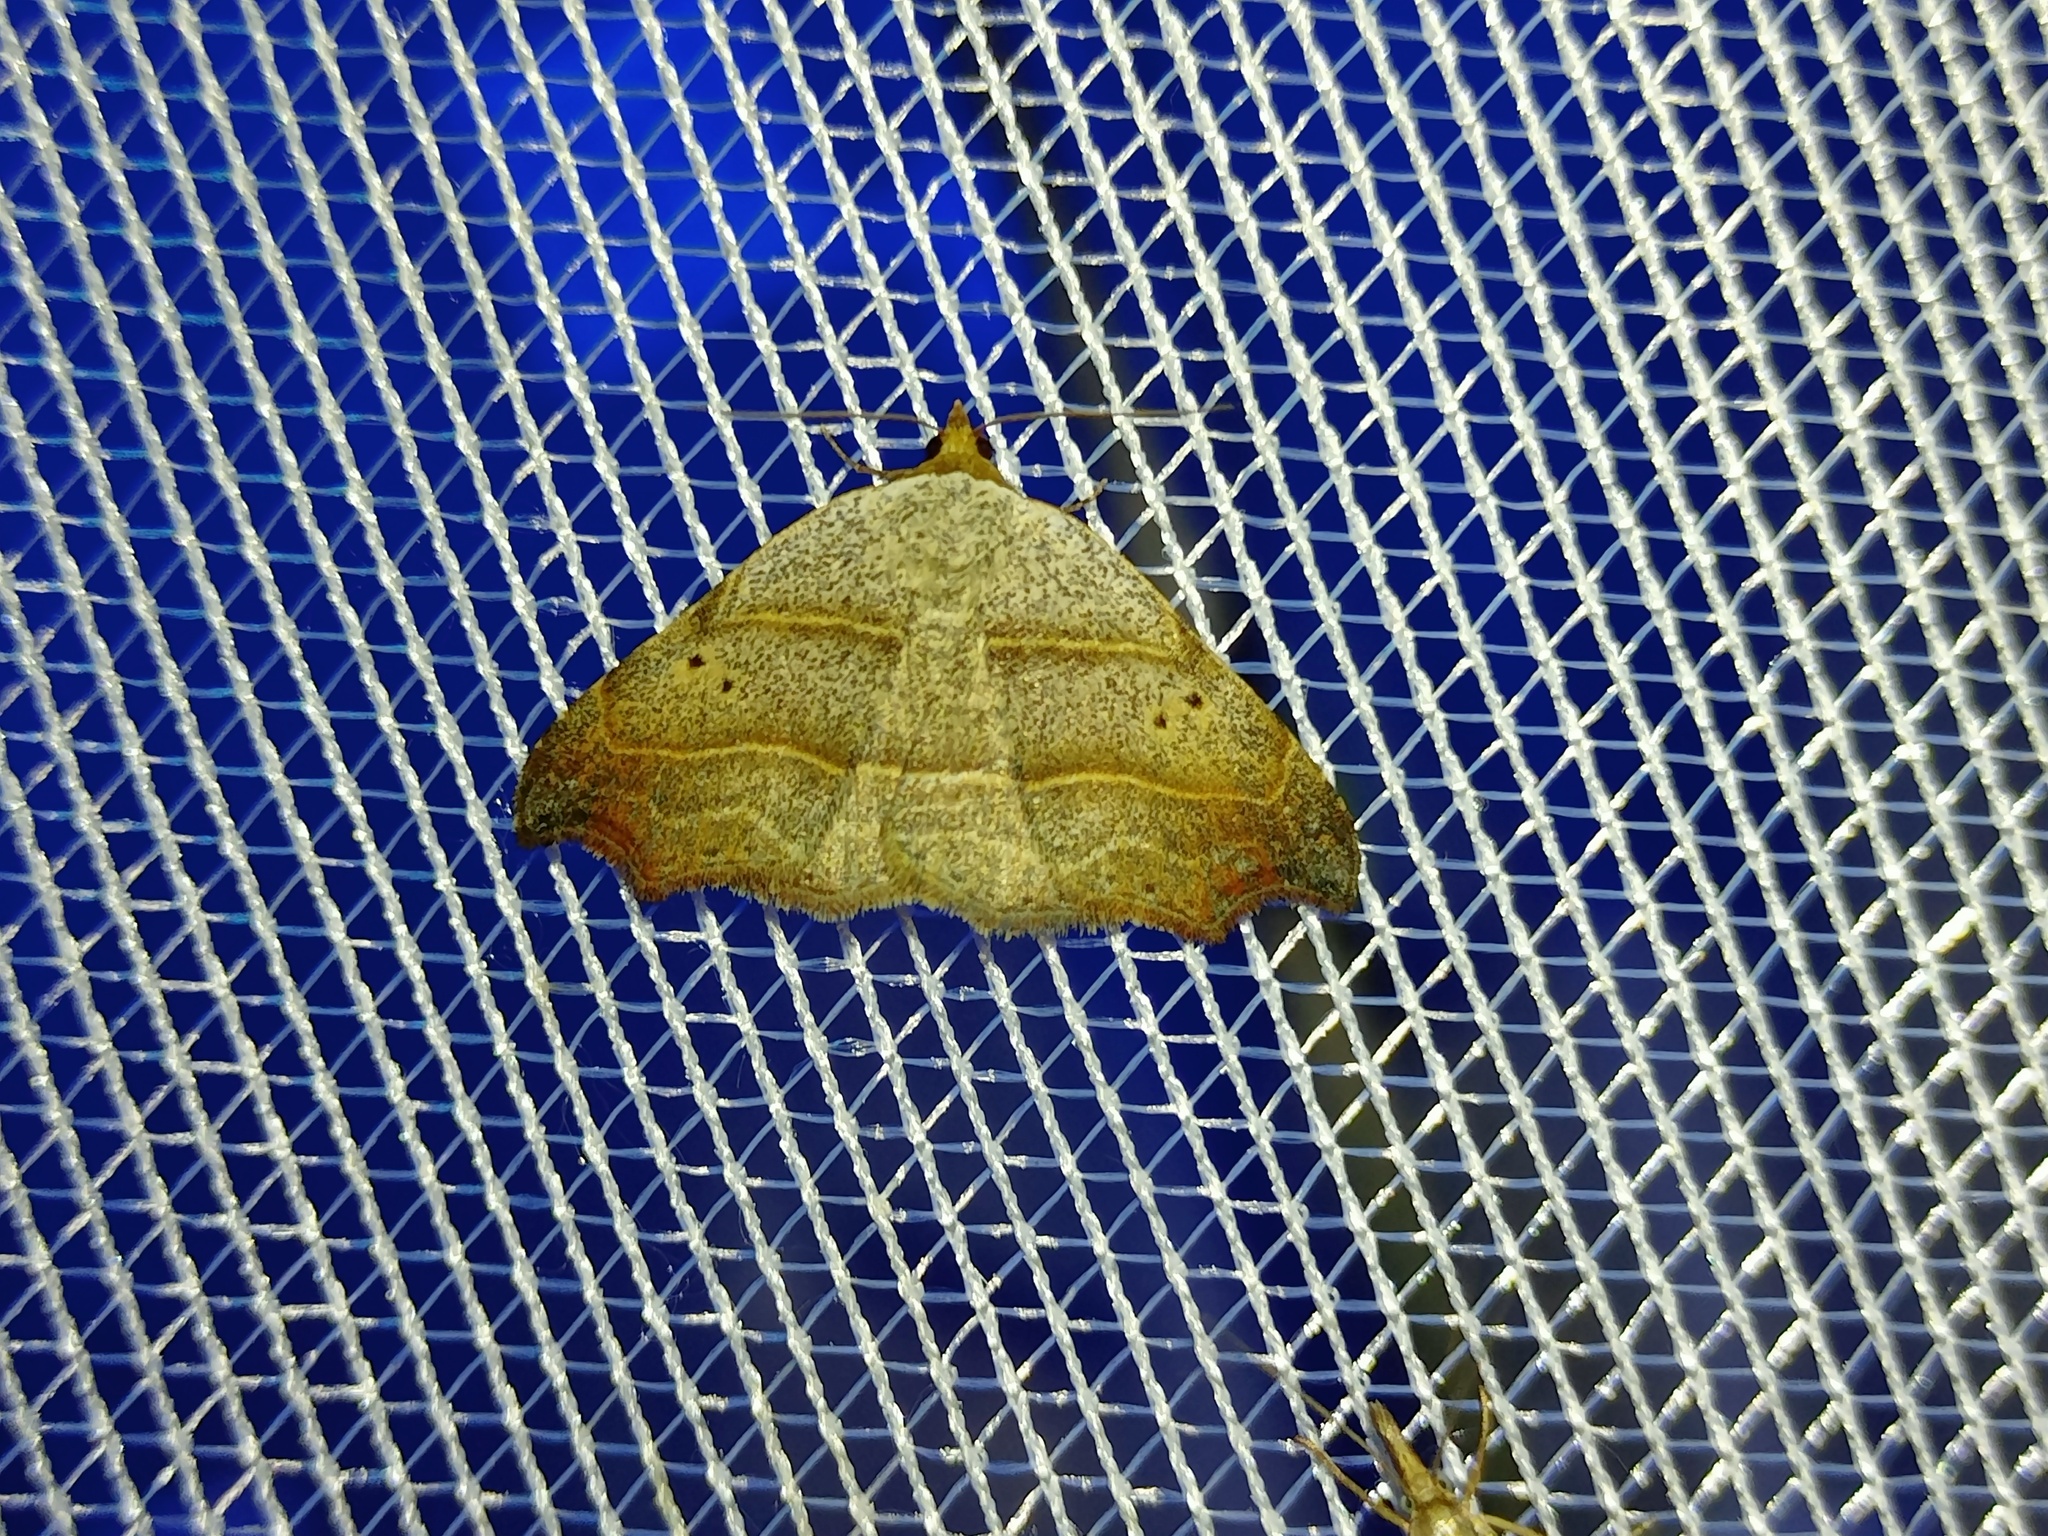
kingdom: Animalia
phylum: Arthropoda
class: Insecta
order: Lepidoptera
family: Erebidae
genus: Laspeyria
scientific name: Laspeyria flexula
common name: Beautiful hook-tip
